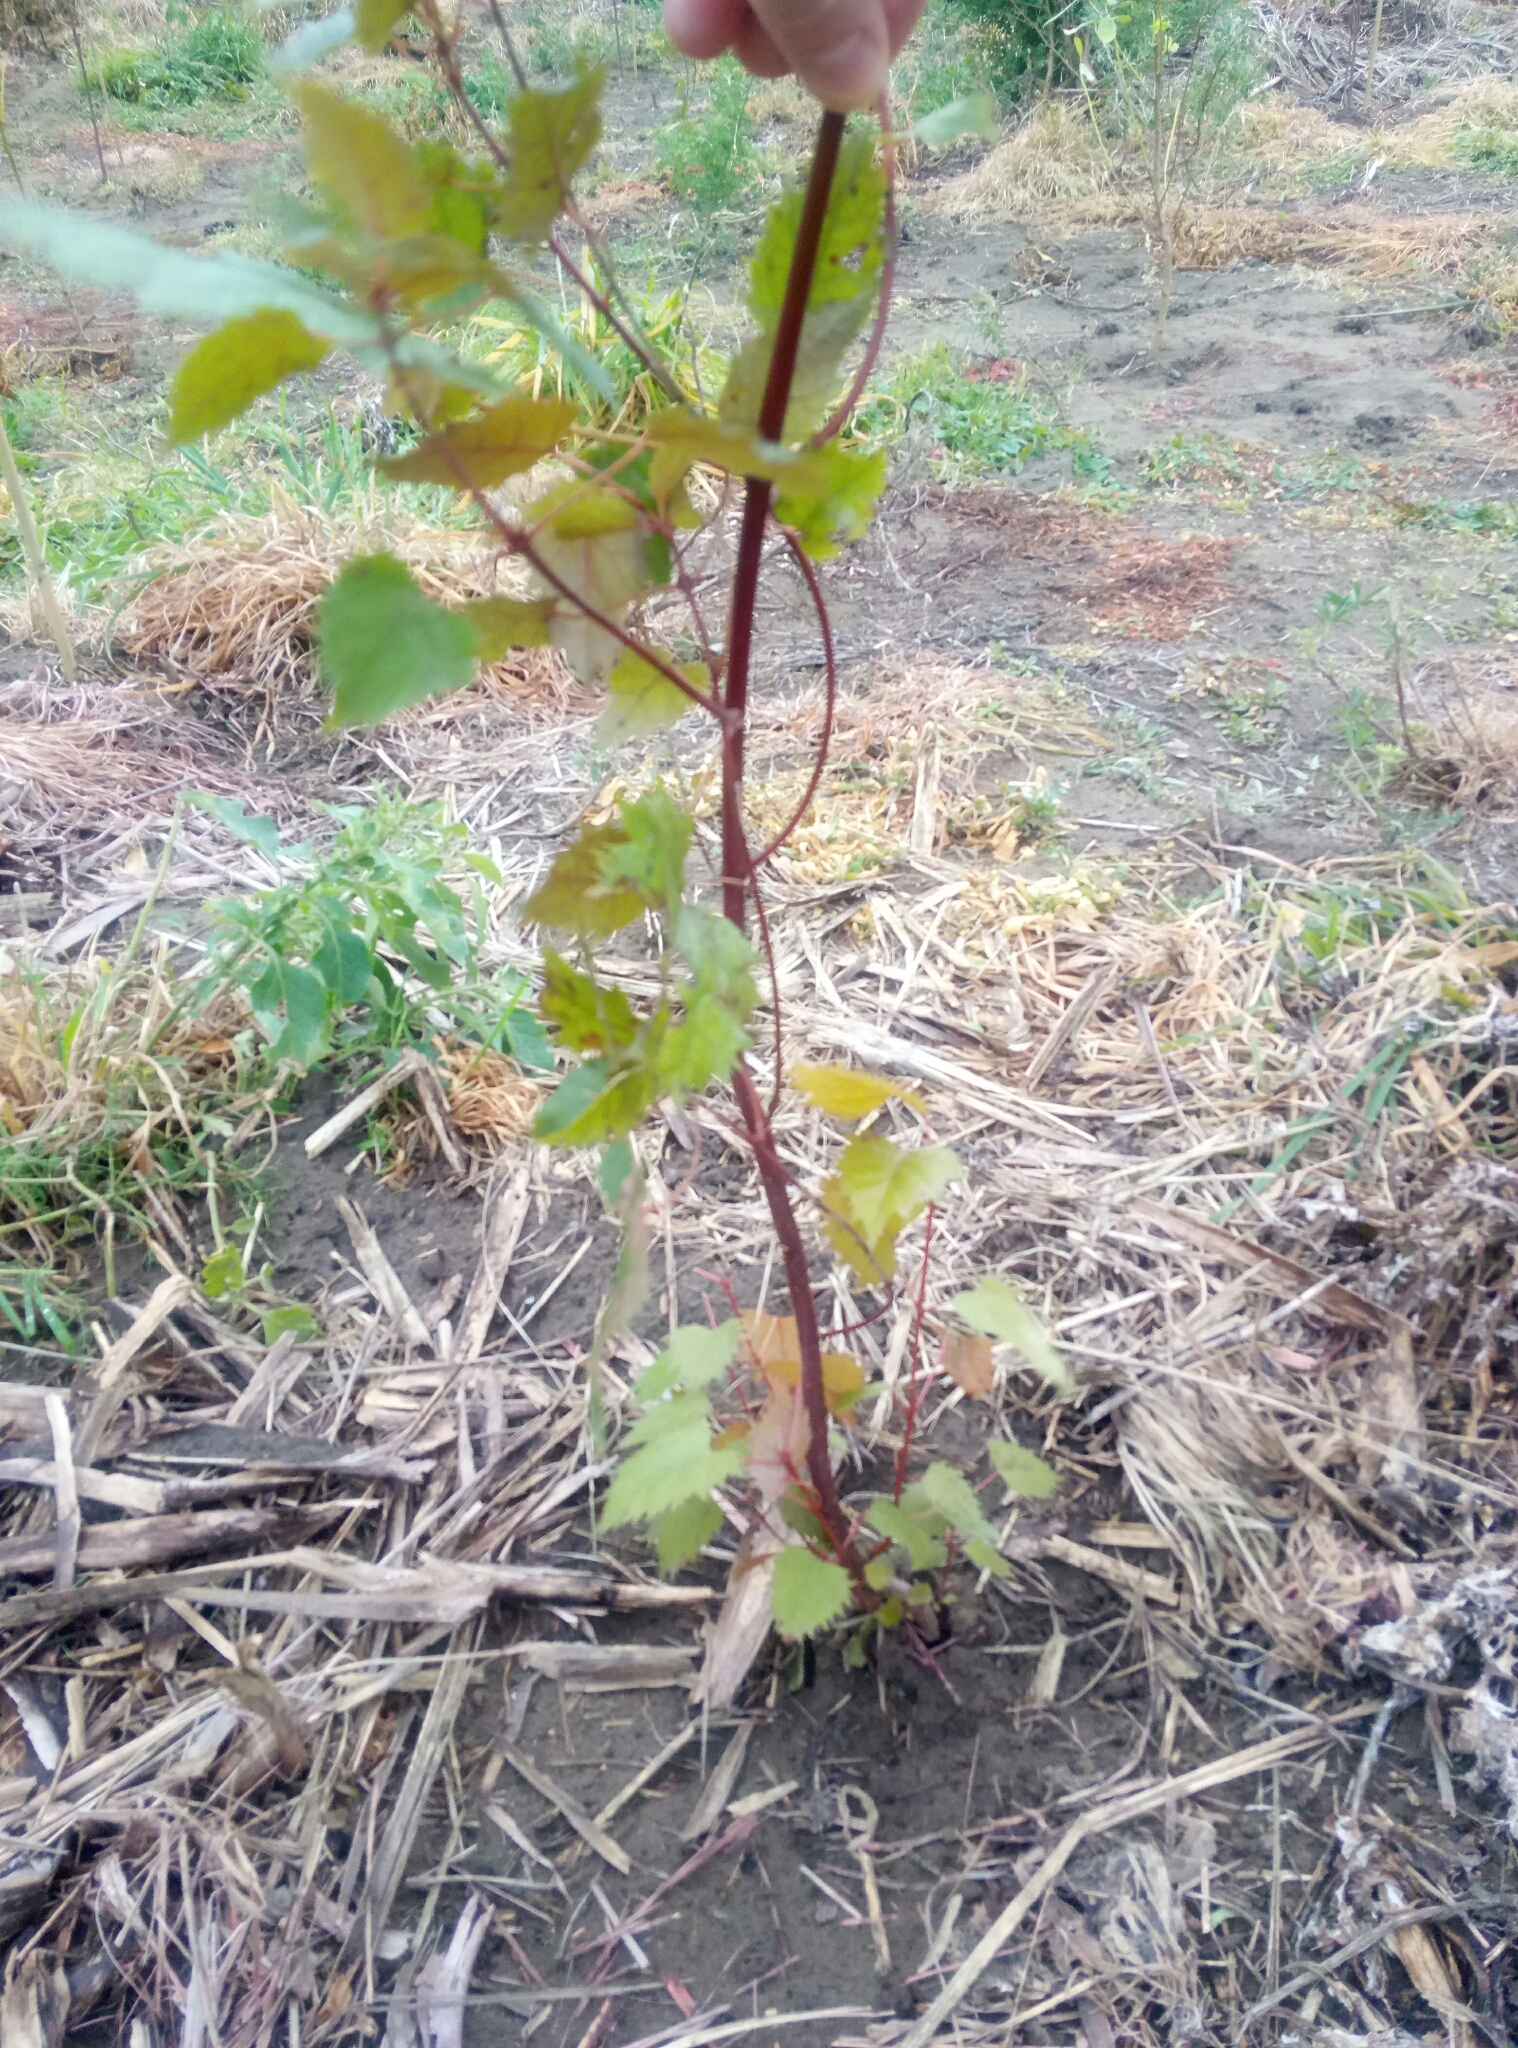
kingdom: Plantae
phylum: Tracheophyta
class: Magnoliopsida
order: Oxalidales
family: Elaeocarpaceae
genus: Aristotelia
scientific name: Aristotelia serrata
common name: New zealand wineberry
